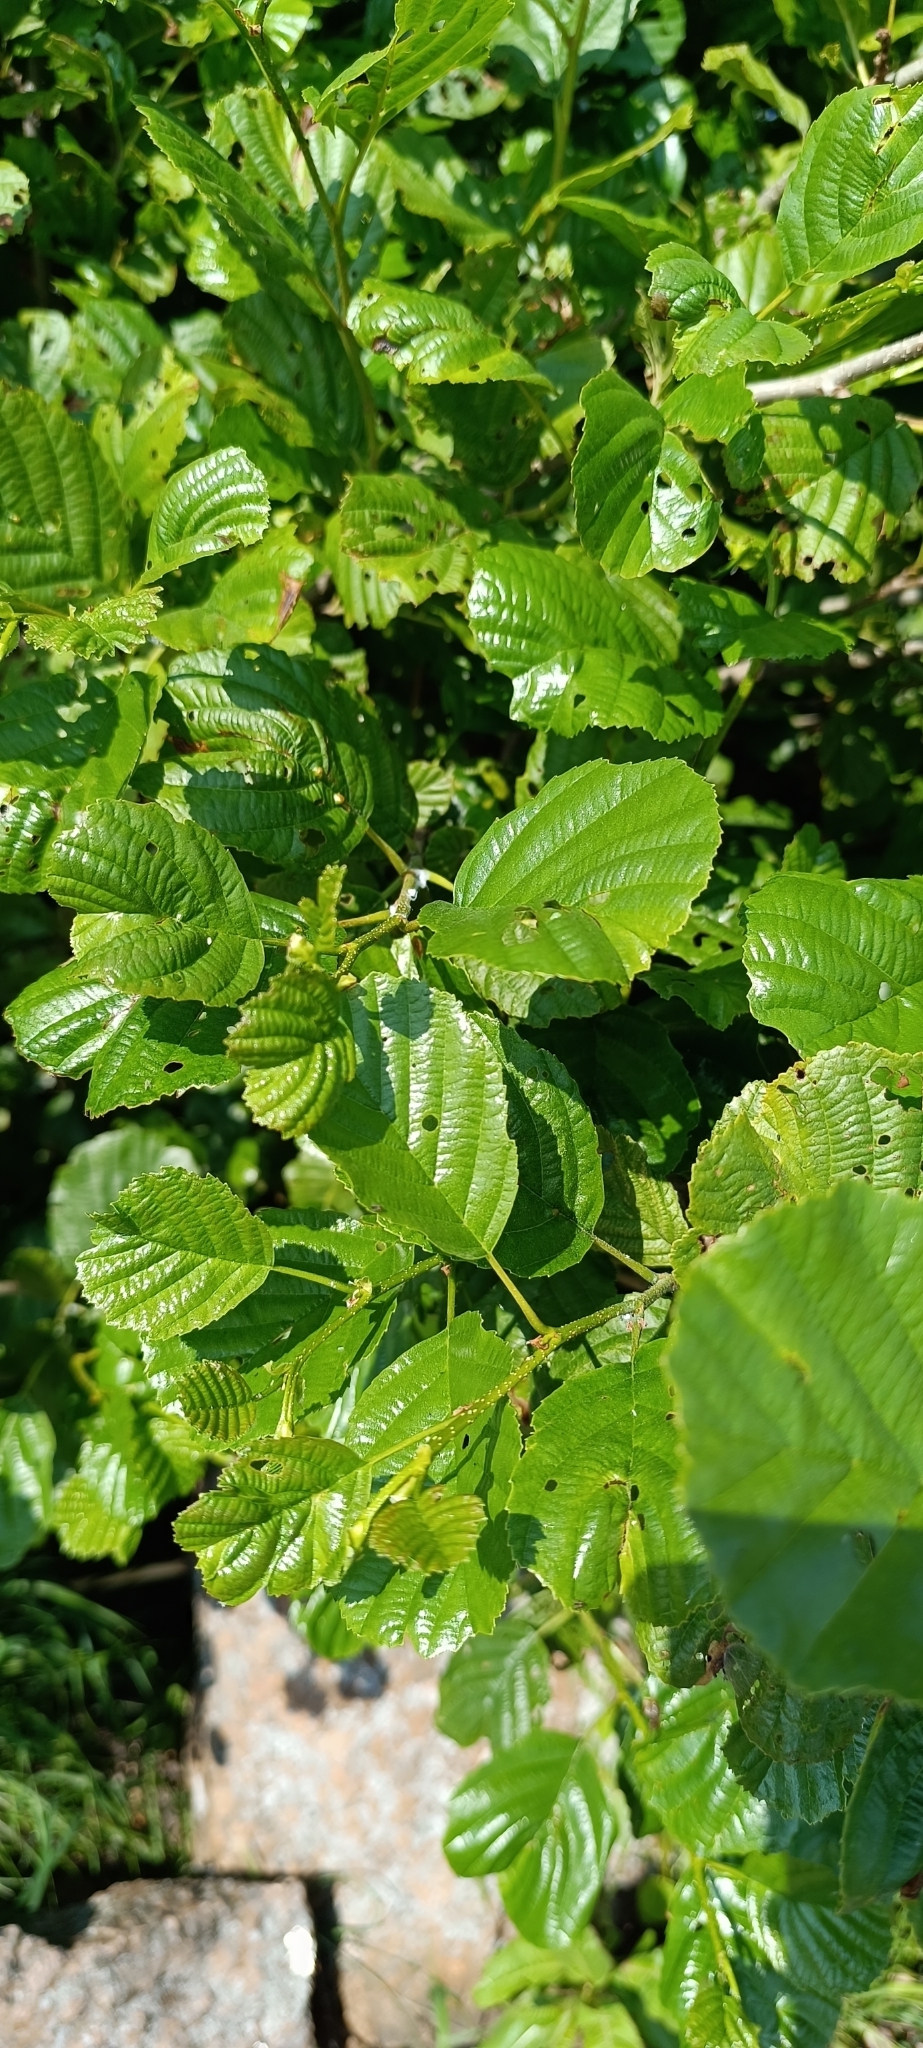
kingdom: Plantae
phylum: Tracheophyta
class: Magnoliopsida
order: Fagales
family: Betulaceae
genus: Alnus
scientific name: Alnus glutinosa
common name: Black alder
